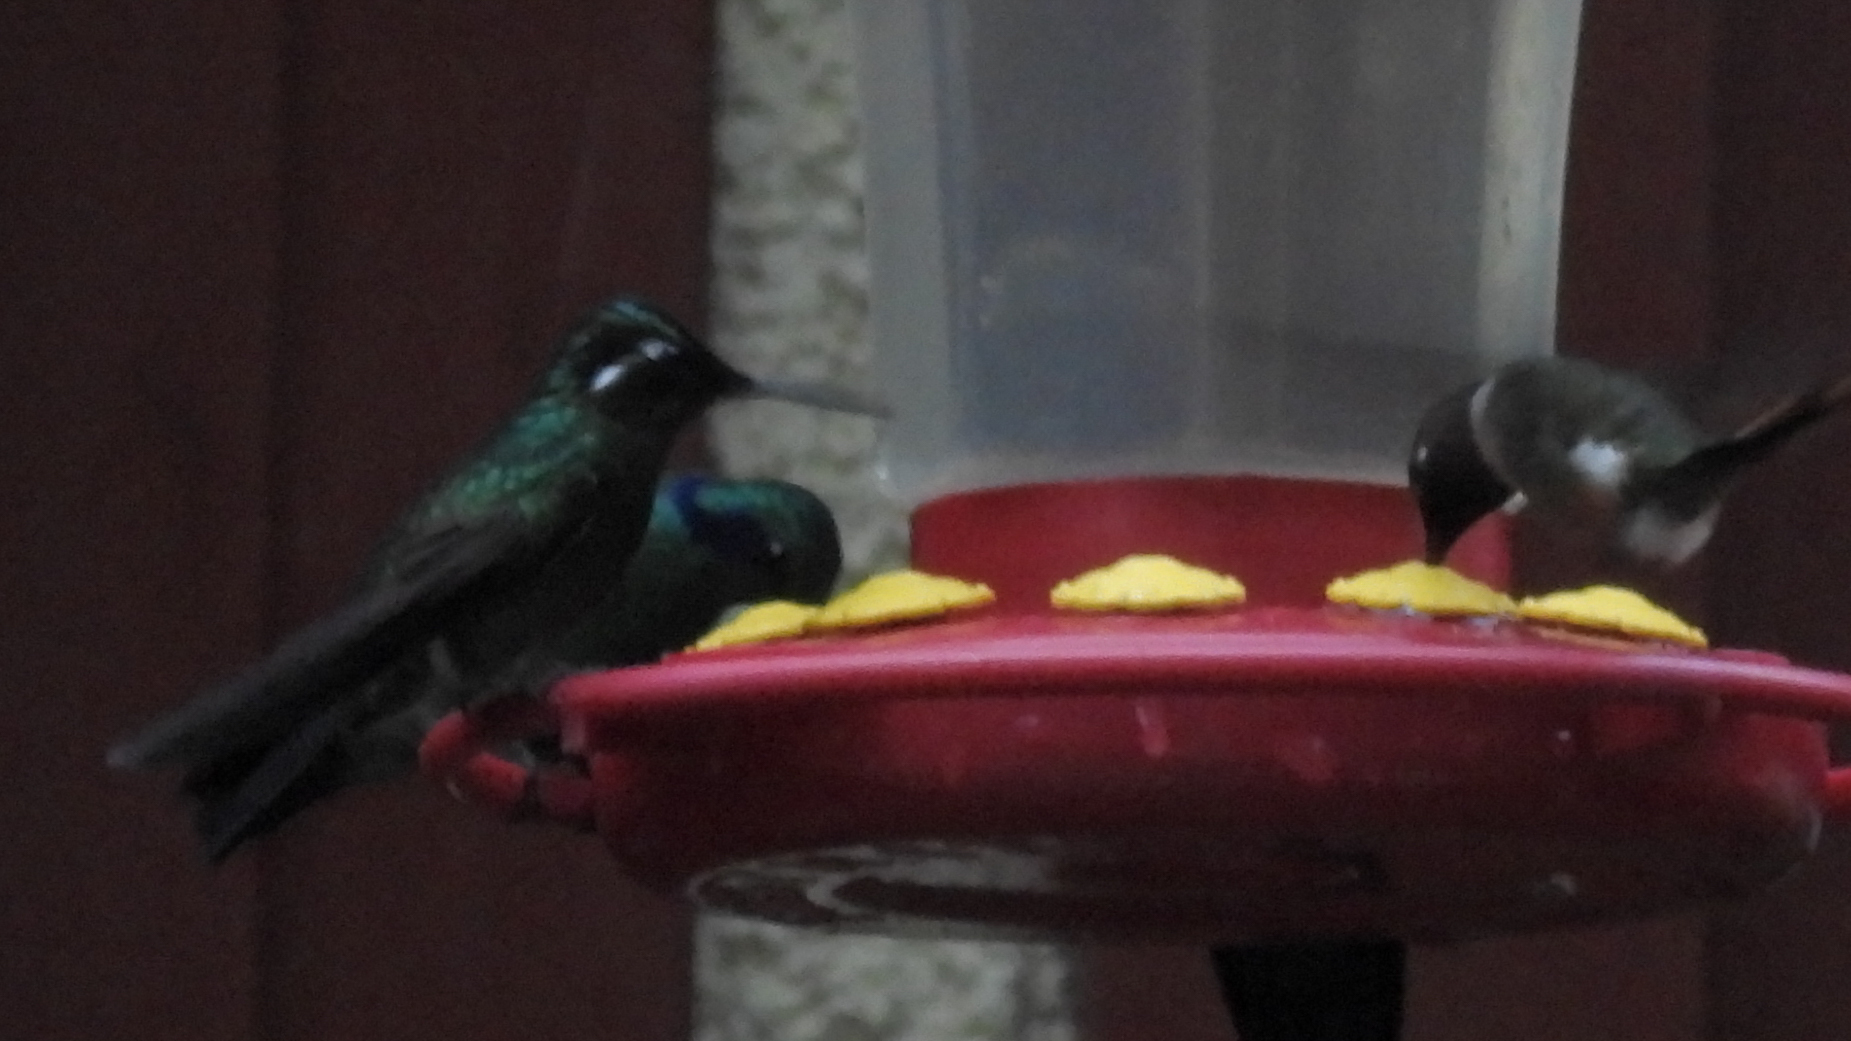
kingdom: Animalia
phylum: Chordata
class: Aves
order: Apodiformes
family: Trochilidae
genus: Lampornis
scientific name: Lampornis calolaemus
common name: Purple-throated mountain-gem
